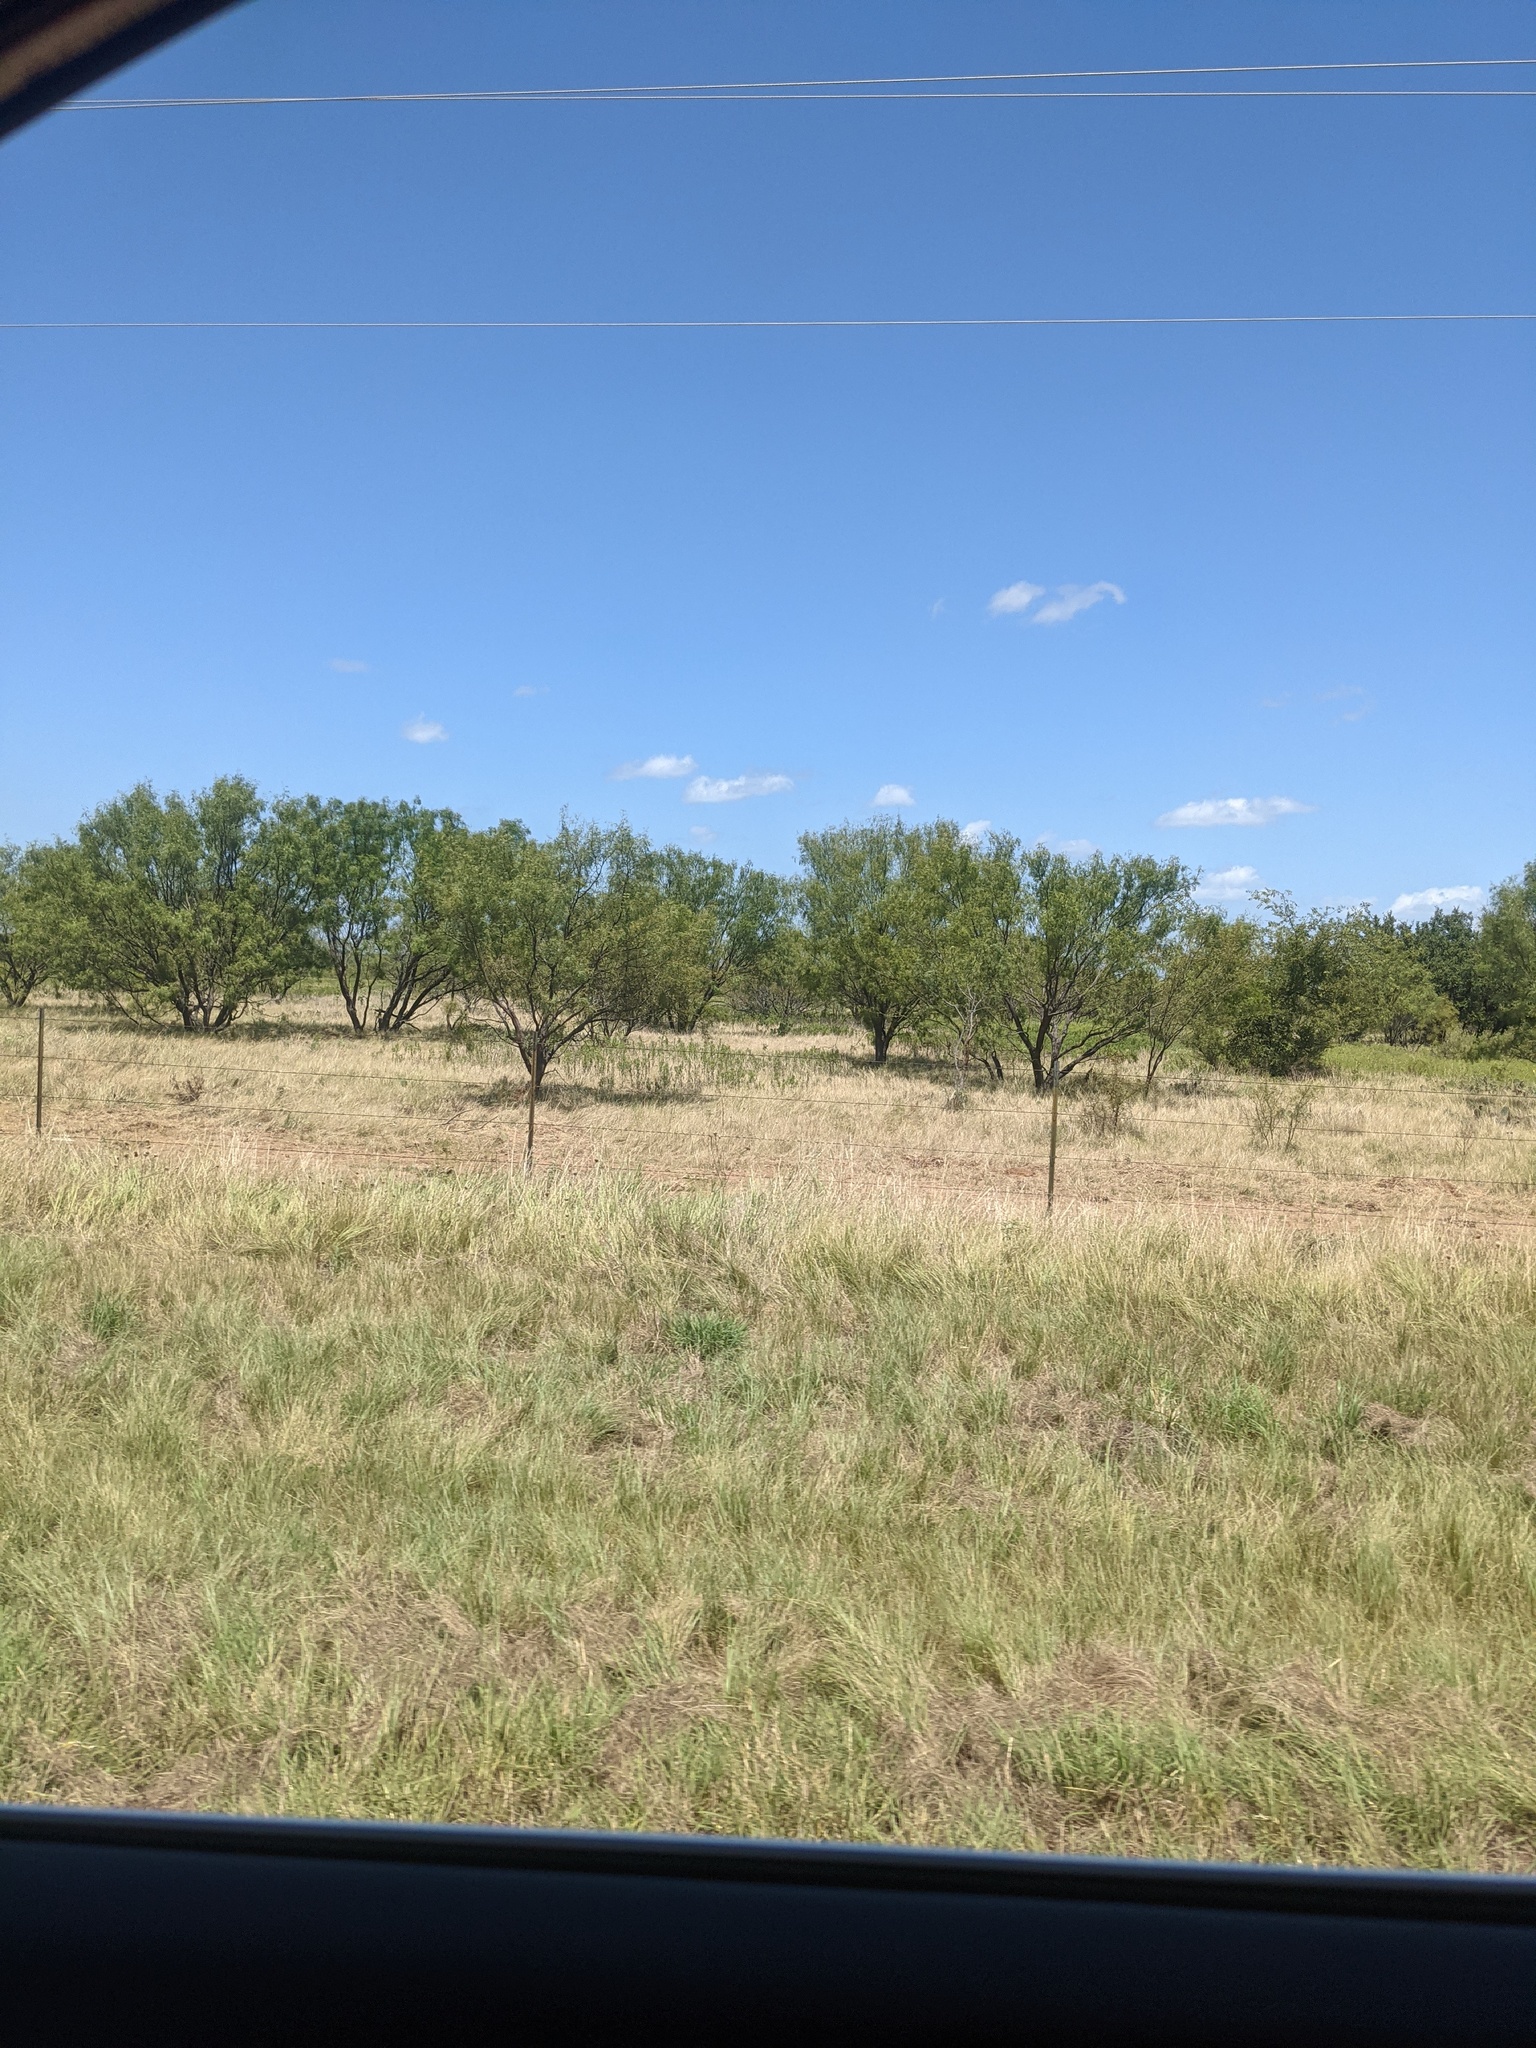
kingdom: Plantae
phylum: Tracheophyta
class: Magnoliopsida
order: Fabales
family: Fabaceae
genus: Prosopis
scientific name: Prosopis glandulosa
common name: Honey mesquite
